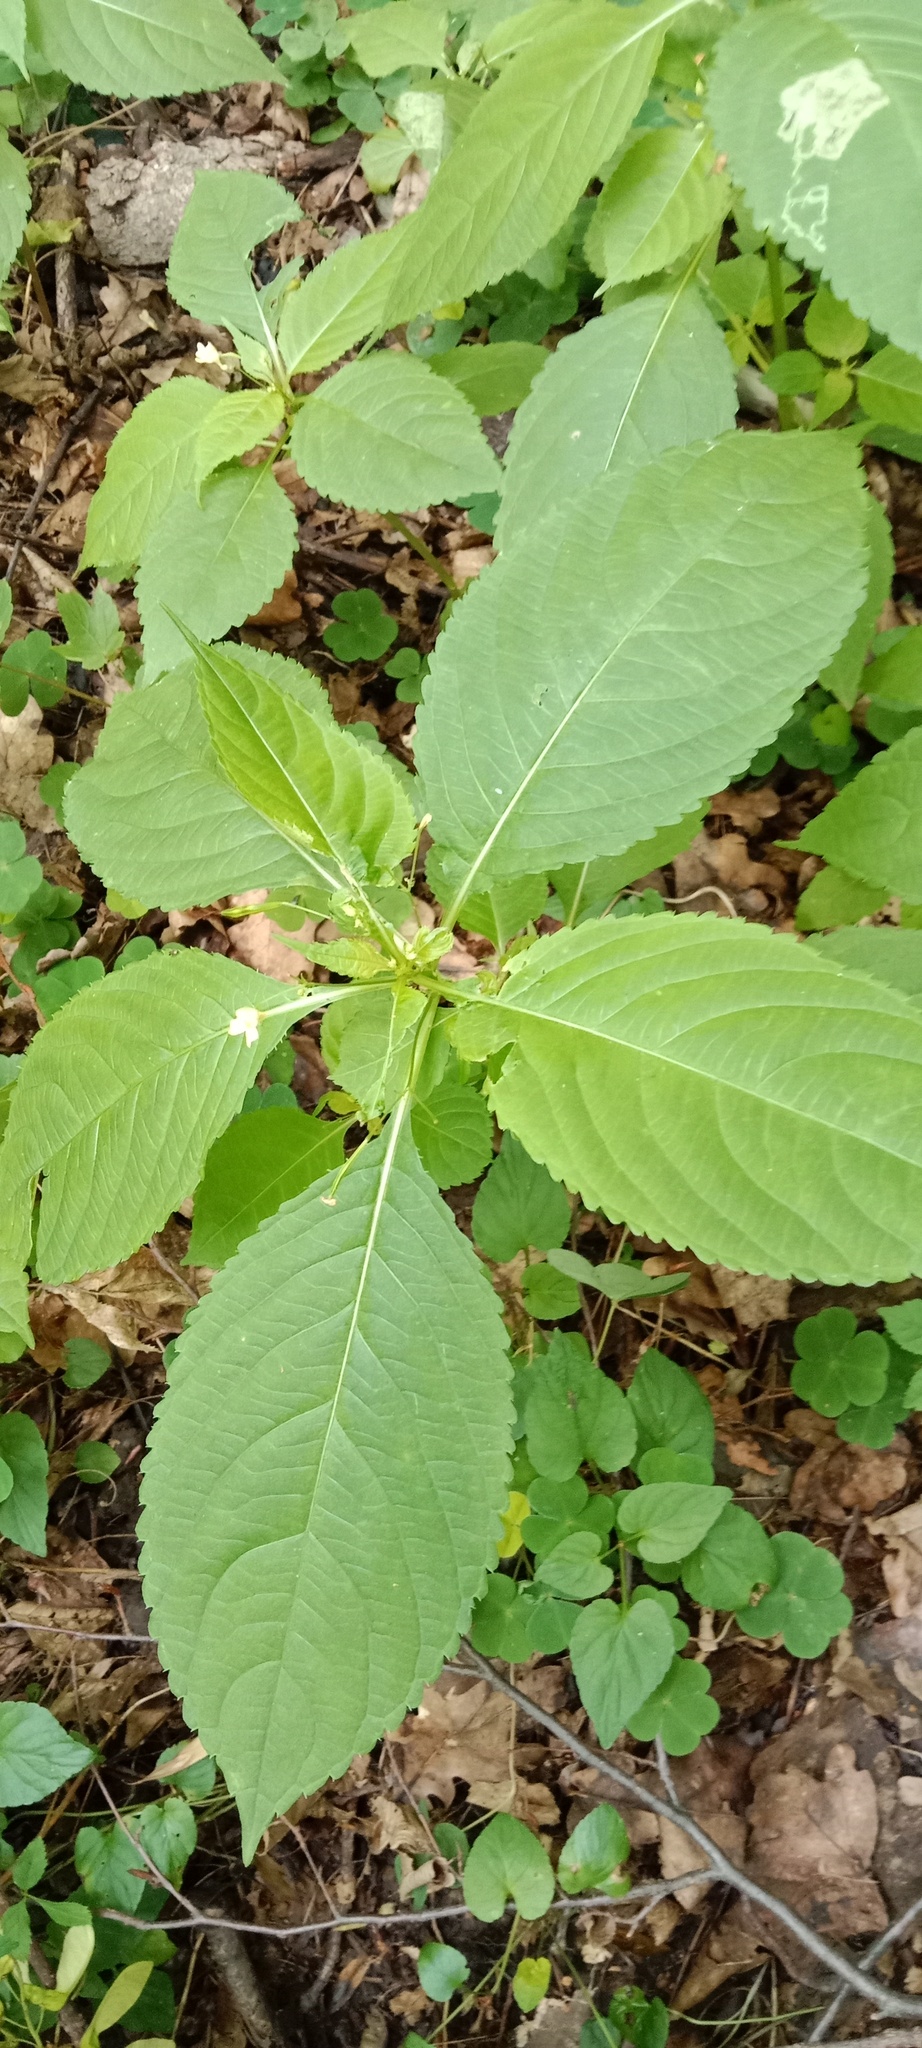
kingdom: Plantae
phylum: Tracheophyta
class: Magnoliopsida
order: Ericales
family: Balsaminaceae
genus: Impatiens
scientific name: Impatiens parviflora
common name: Small balsam
